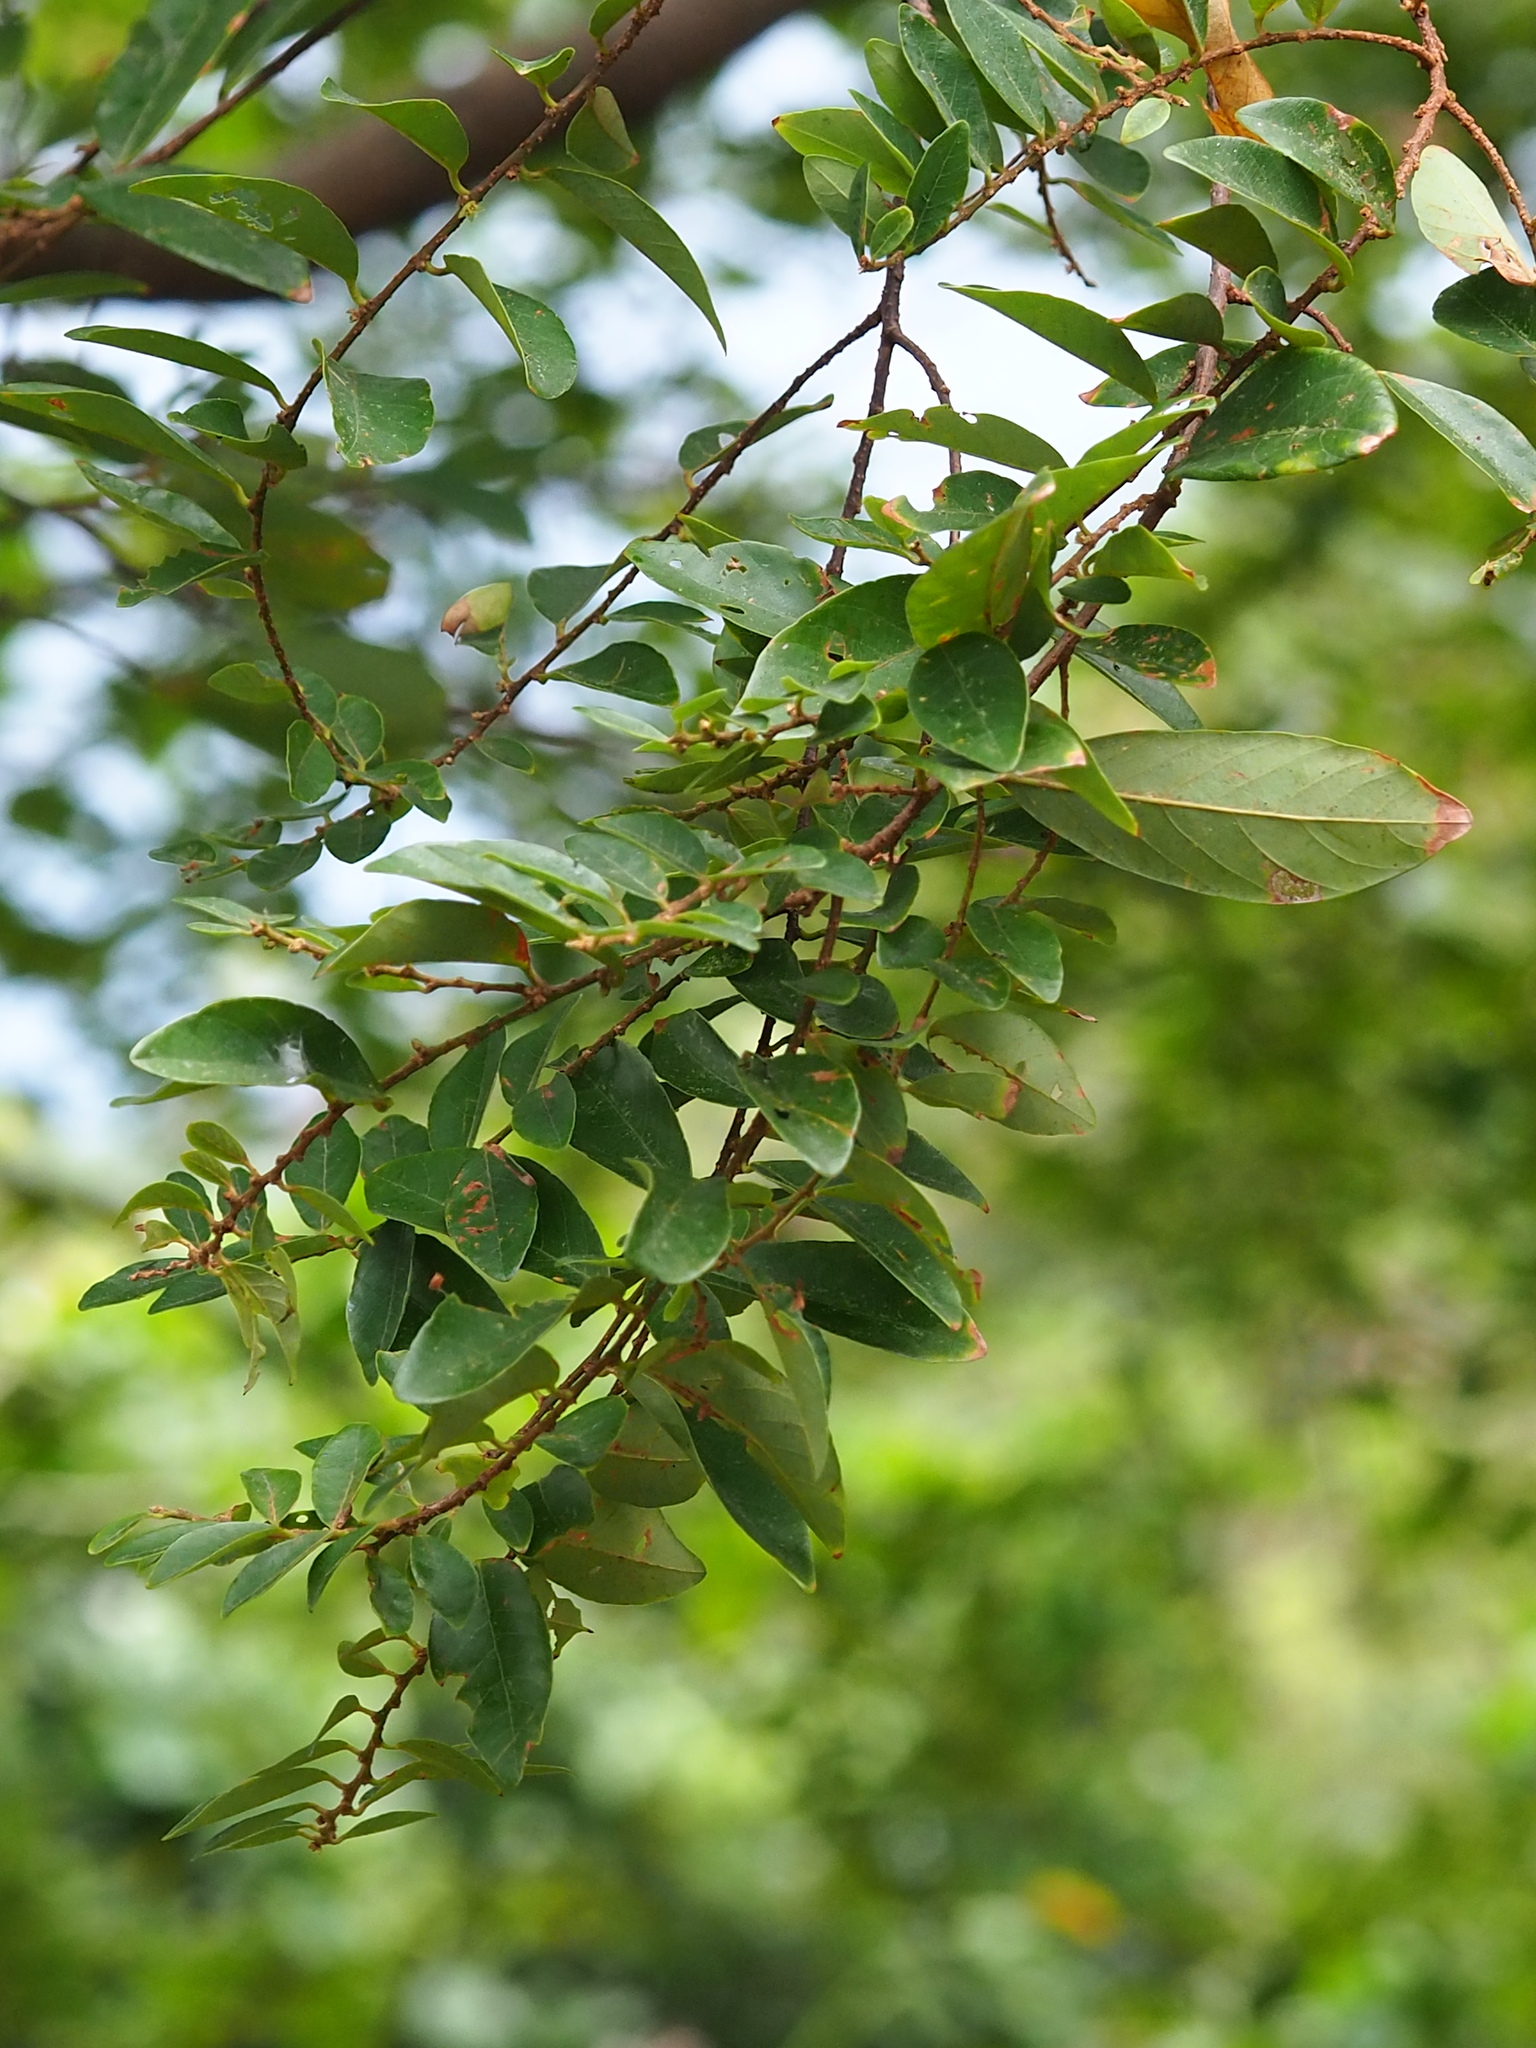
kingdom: Plantae
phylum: Tracheophyta
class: Magnoliopsida
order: Malpighiales
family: Phyllanthaceae
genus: Bridelia
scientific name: Bridelia tomentosa
